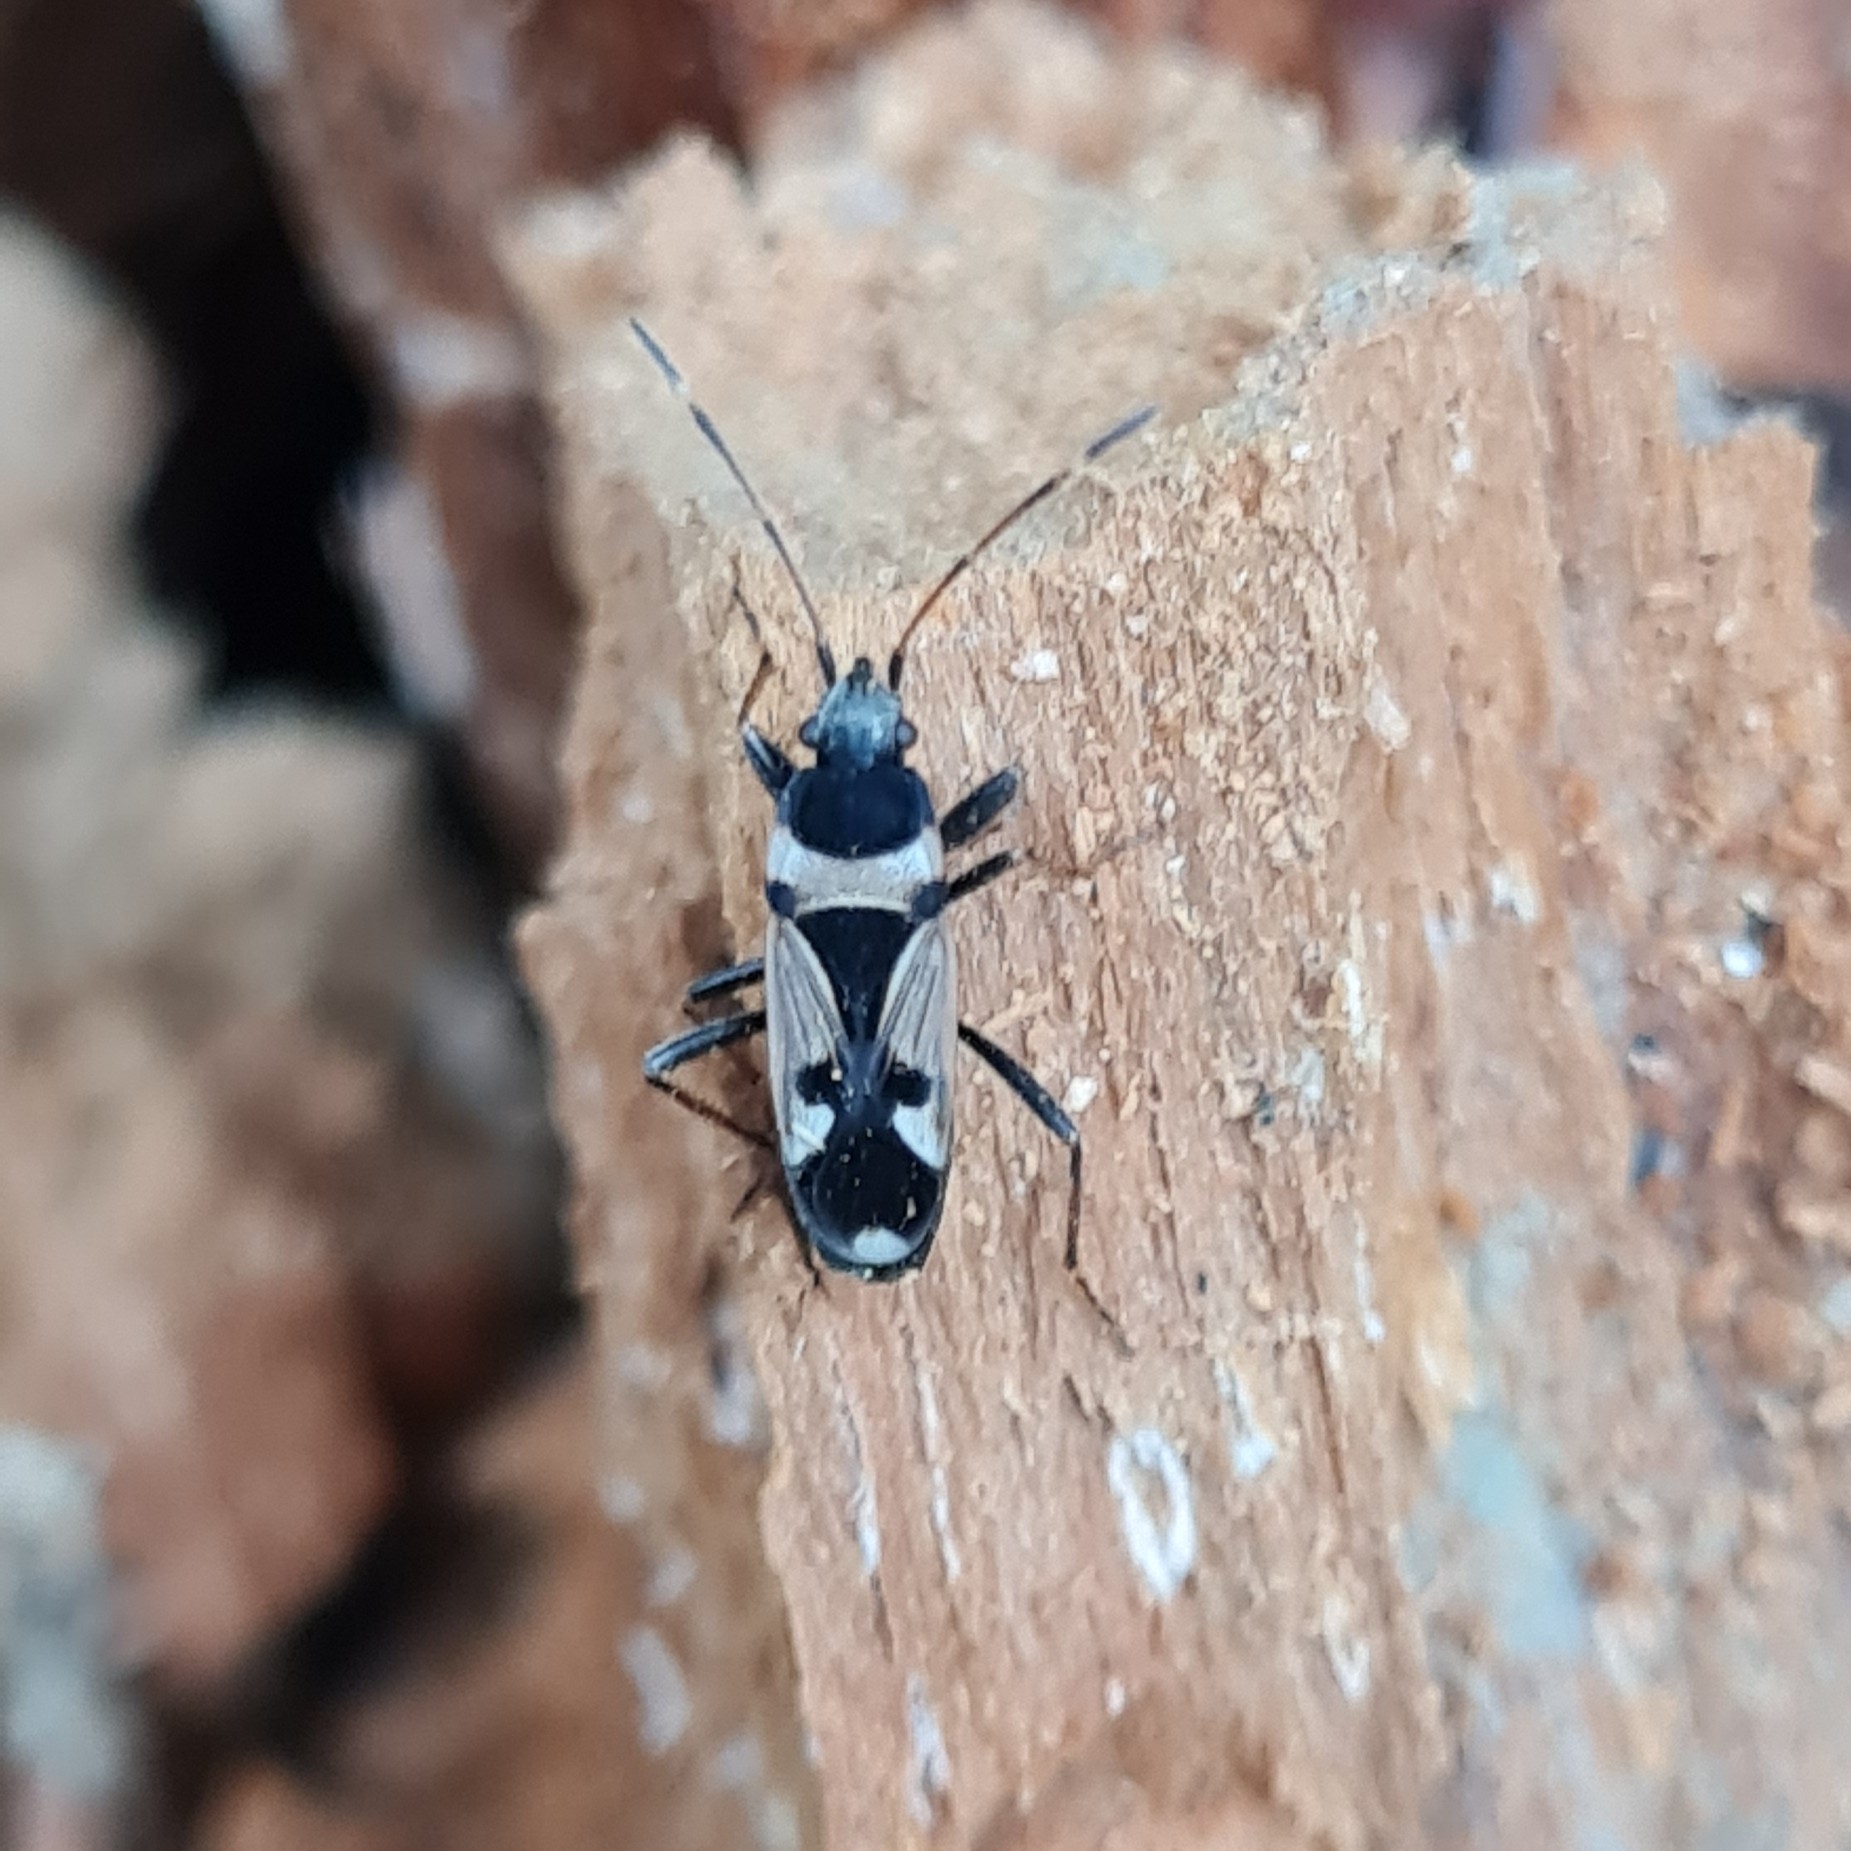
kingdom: Animalia
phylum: Arthropoda
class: Insecta
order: Hemiptera
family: Rhyparochromidae
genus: Raglius
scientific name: Raglius confusus
